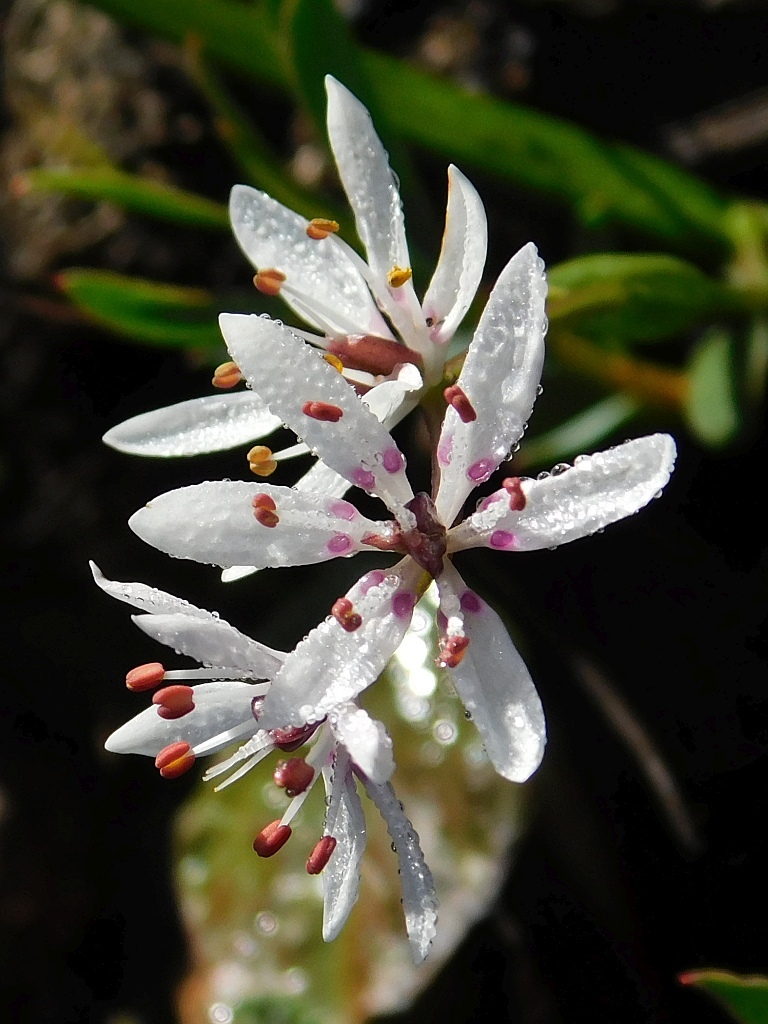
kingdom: Plantae
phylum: Tracheophyta
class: Liliopsida
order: Liliales
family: Colchicaceae
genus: Wurmbea
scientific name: Wurmbea punctata
